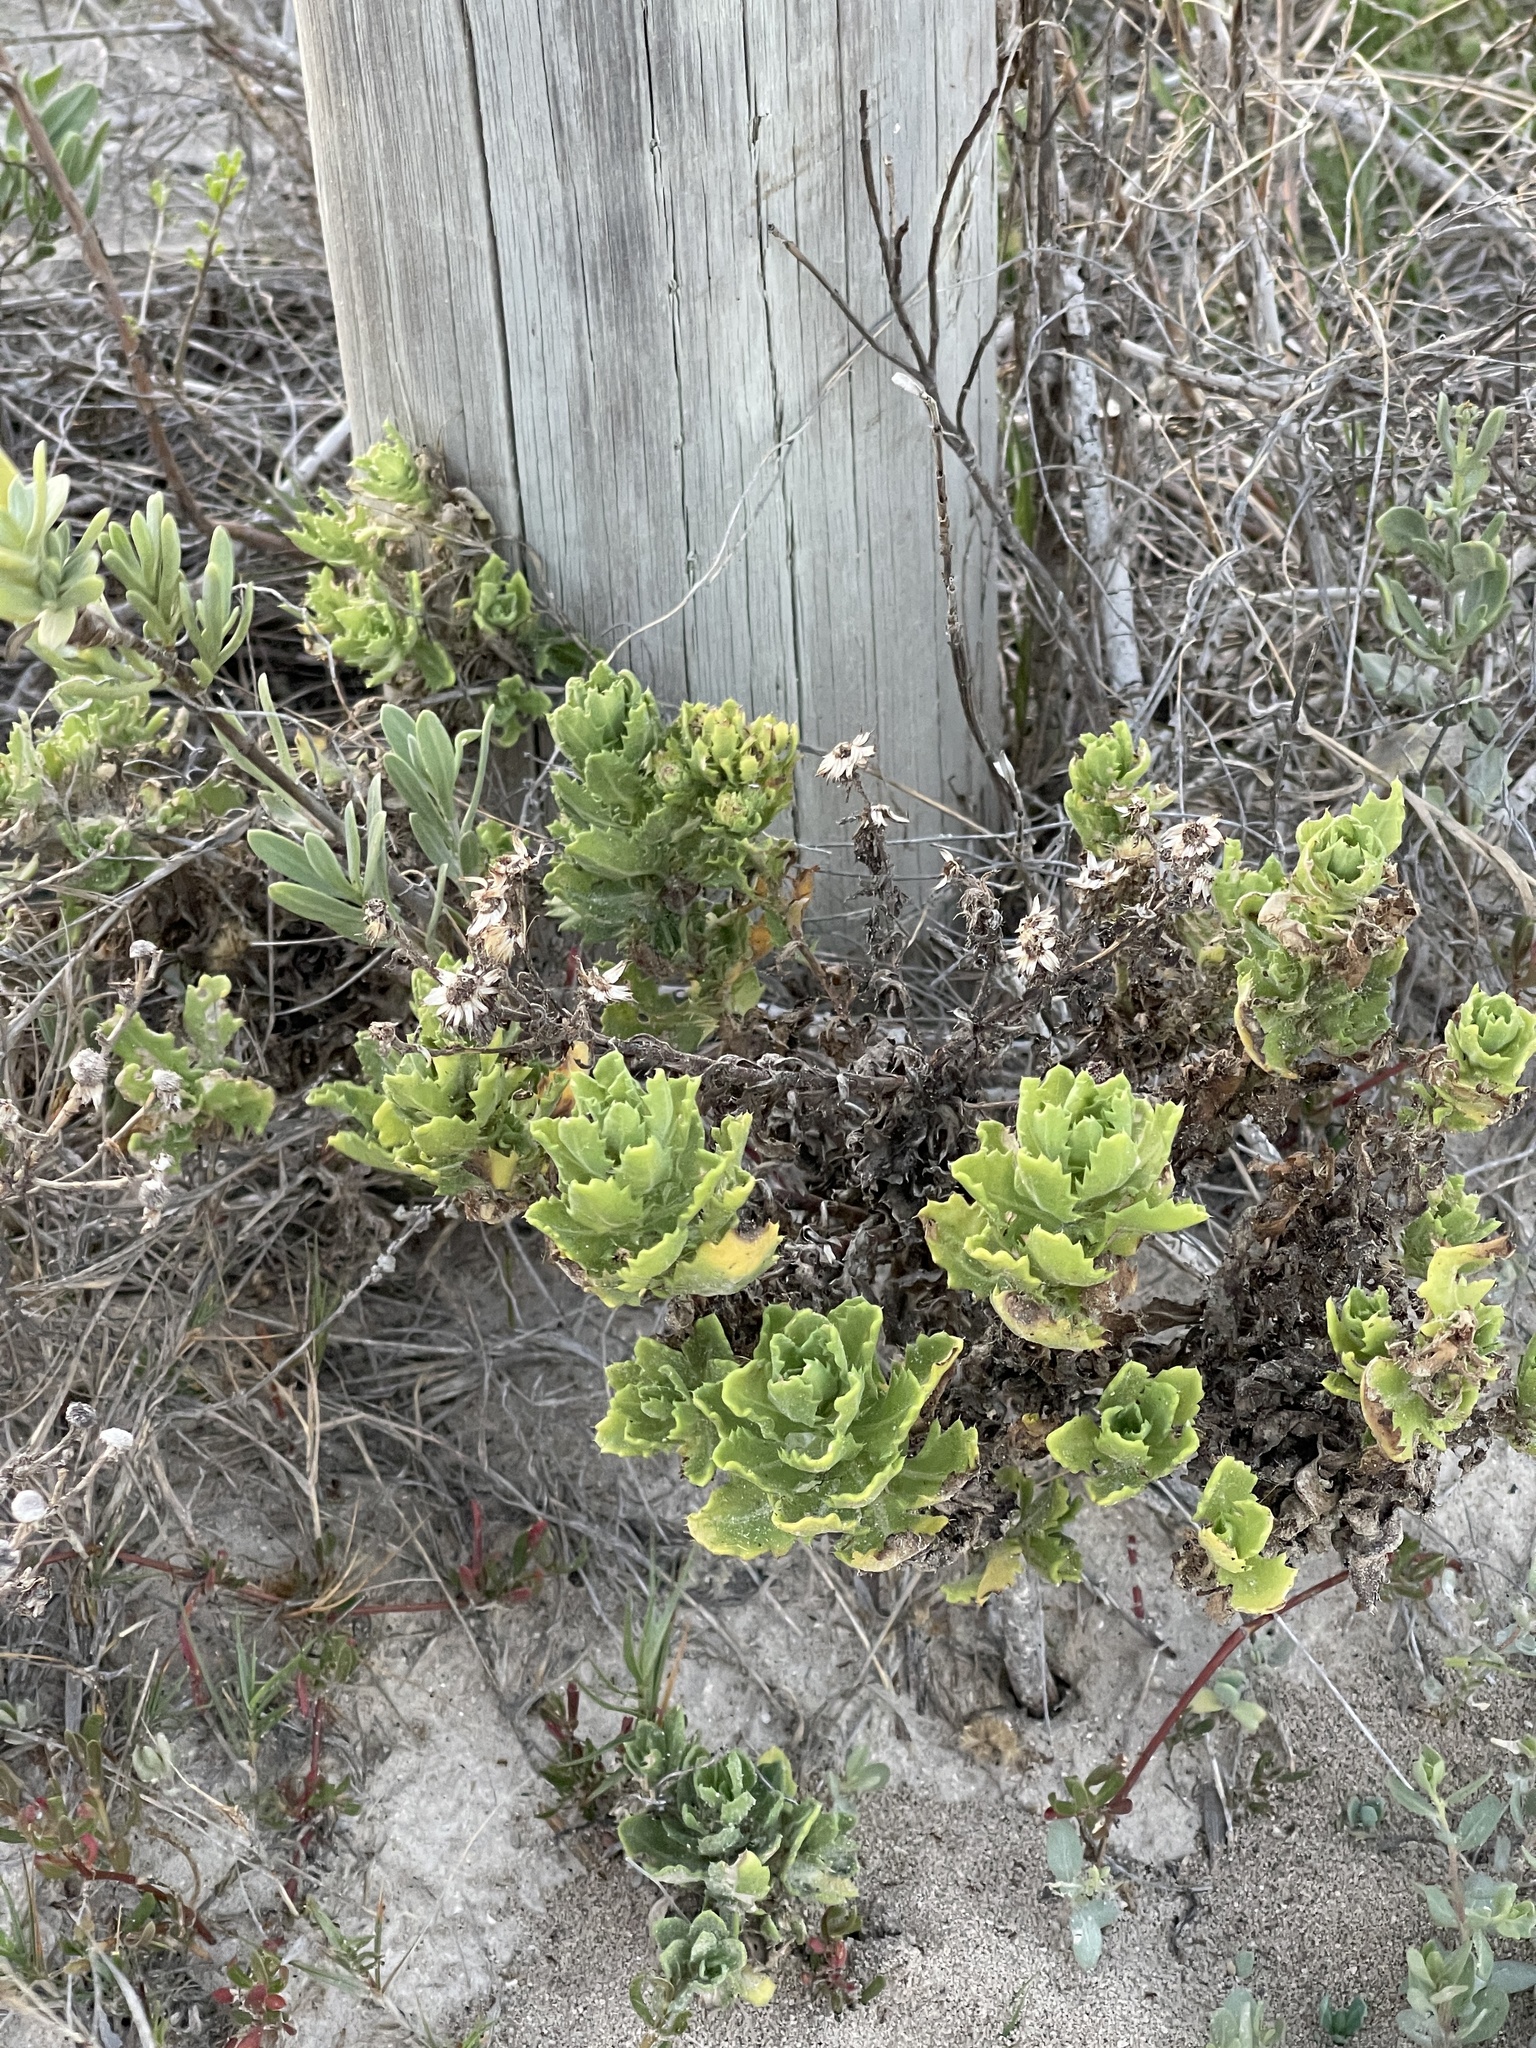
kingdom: Plantae
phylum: Tracheophyta
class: Magnoliopsida
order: Asterales
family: Asteraceae
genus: Rayjacksonia
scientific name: Rayjacksonia phyllocephala
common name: Gulf coast camphor daisy
